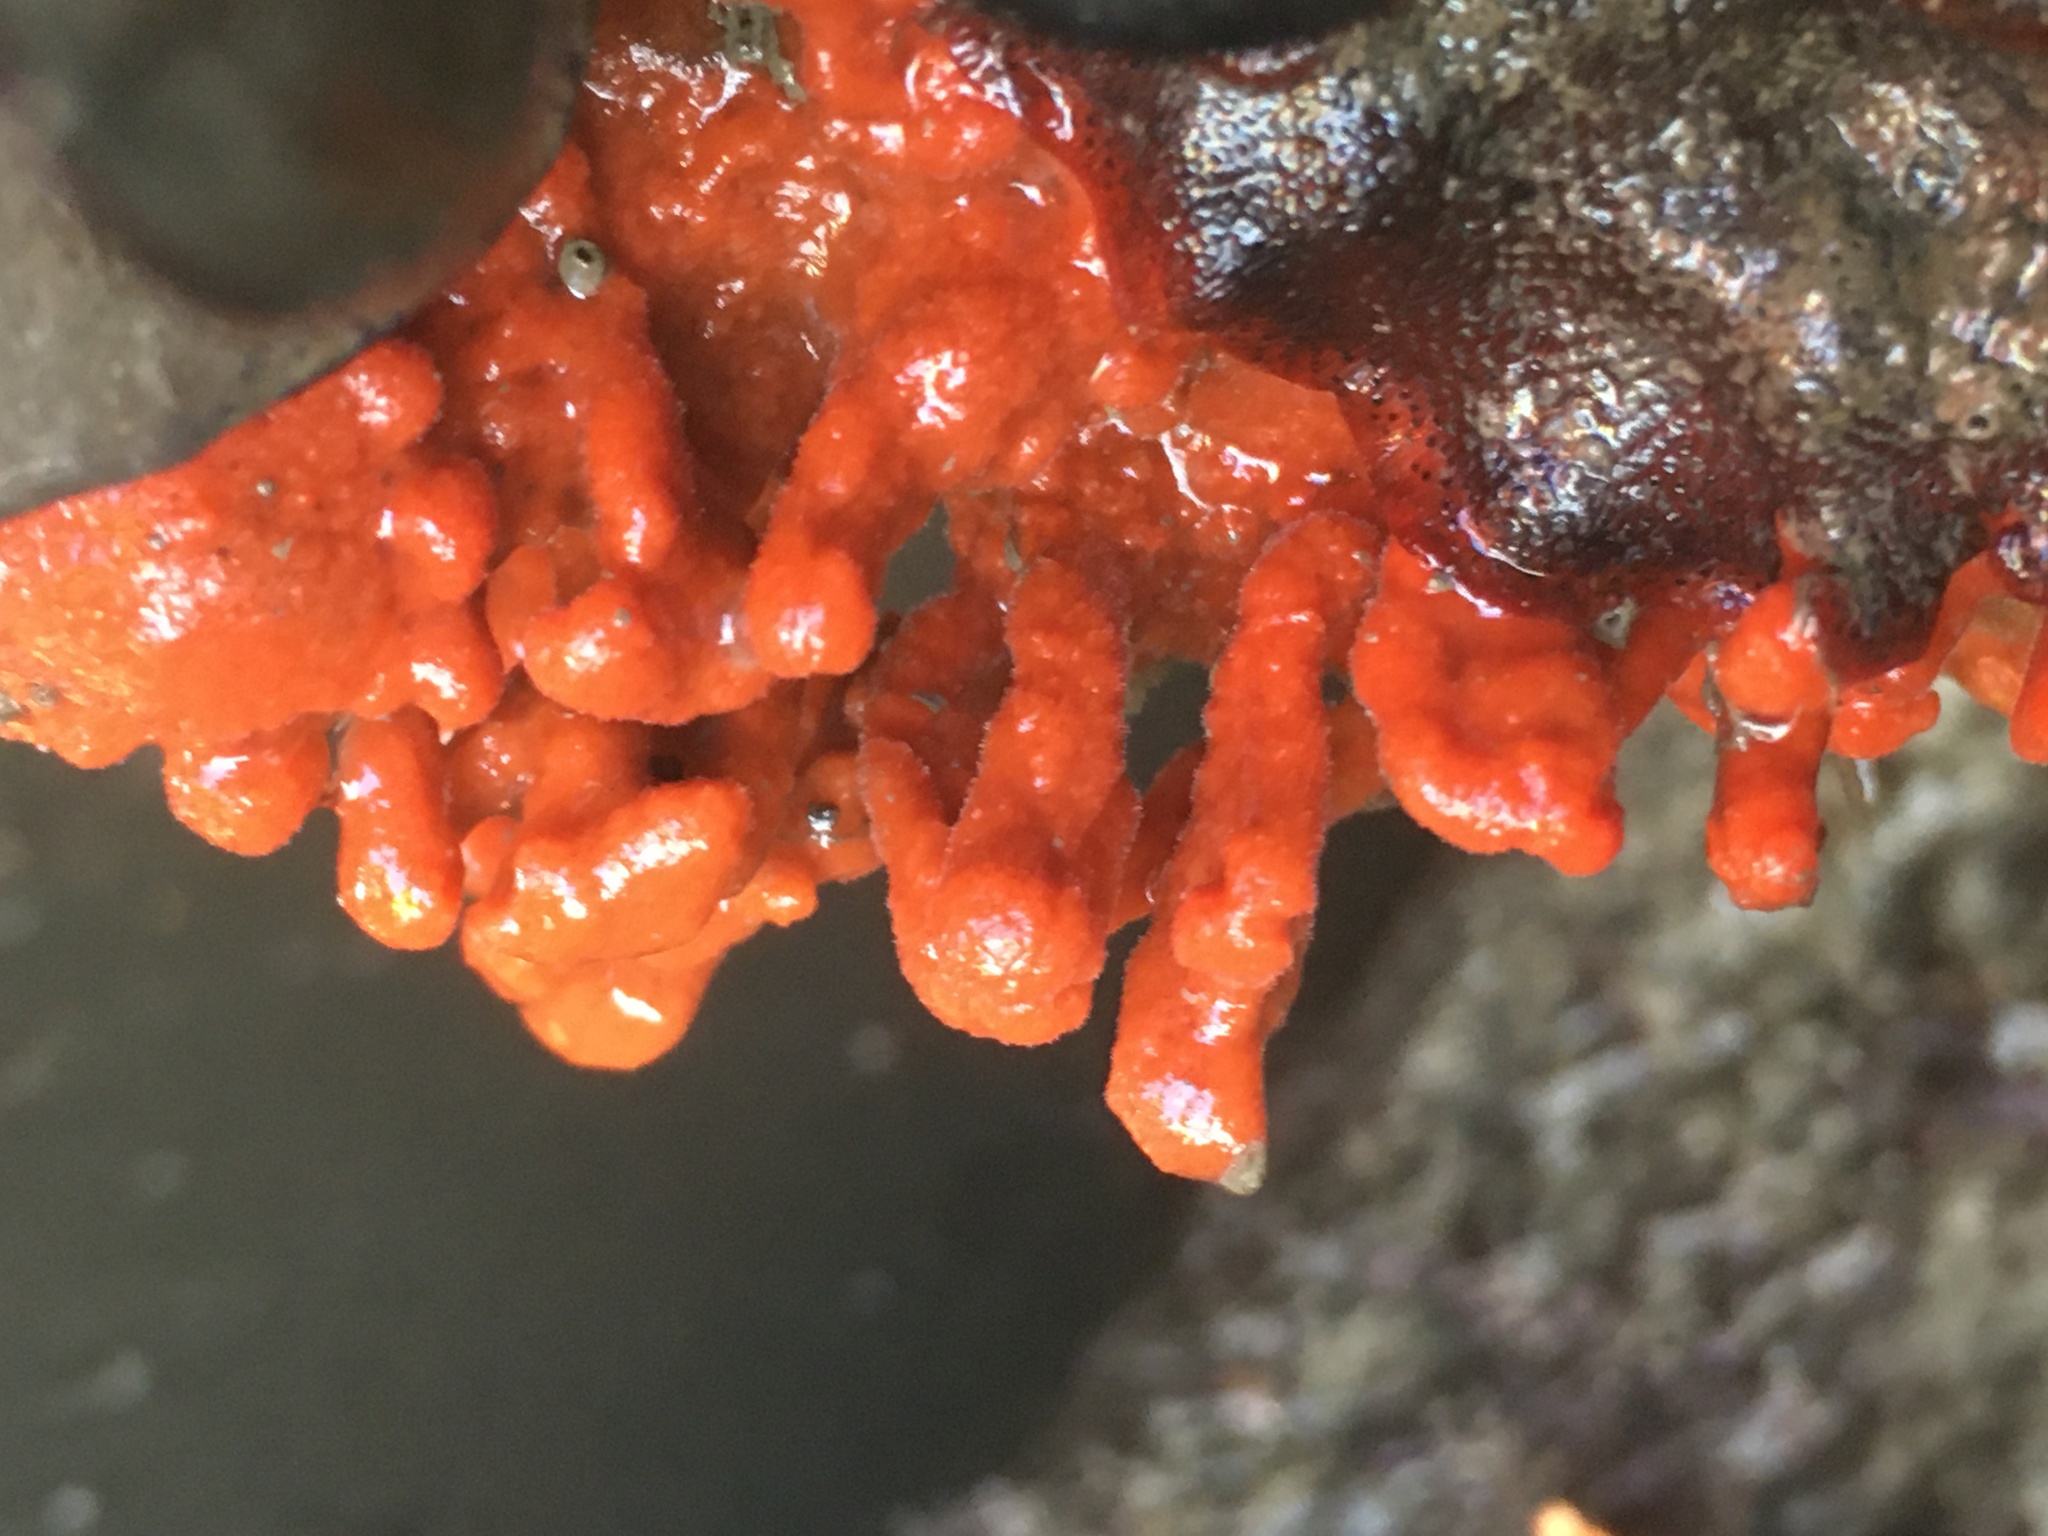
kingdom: Animalia
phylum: Porifera
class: Demospongiae
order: Poecilosclerida
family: Microcionidae
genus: Clathria
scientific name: Clathria prolifera
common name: Red beard sponge
